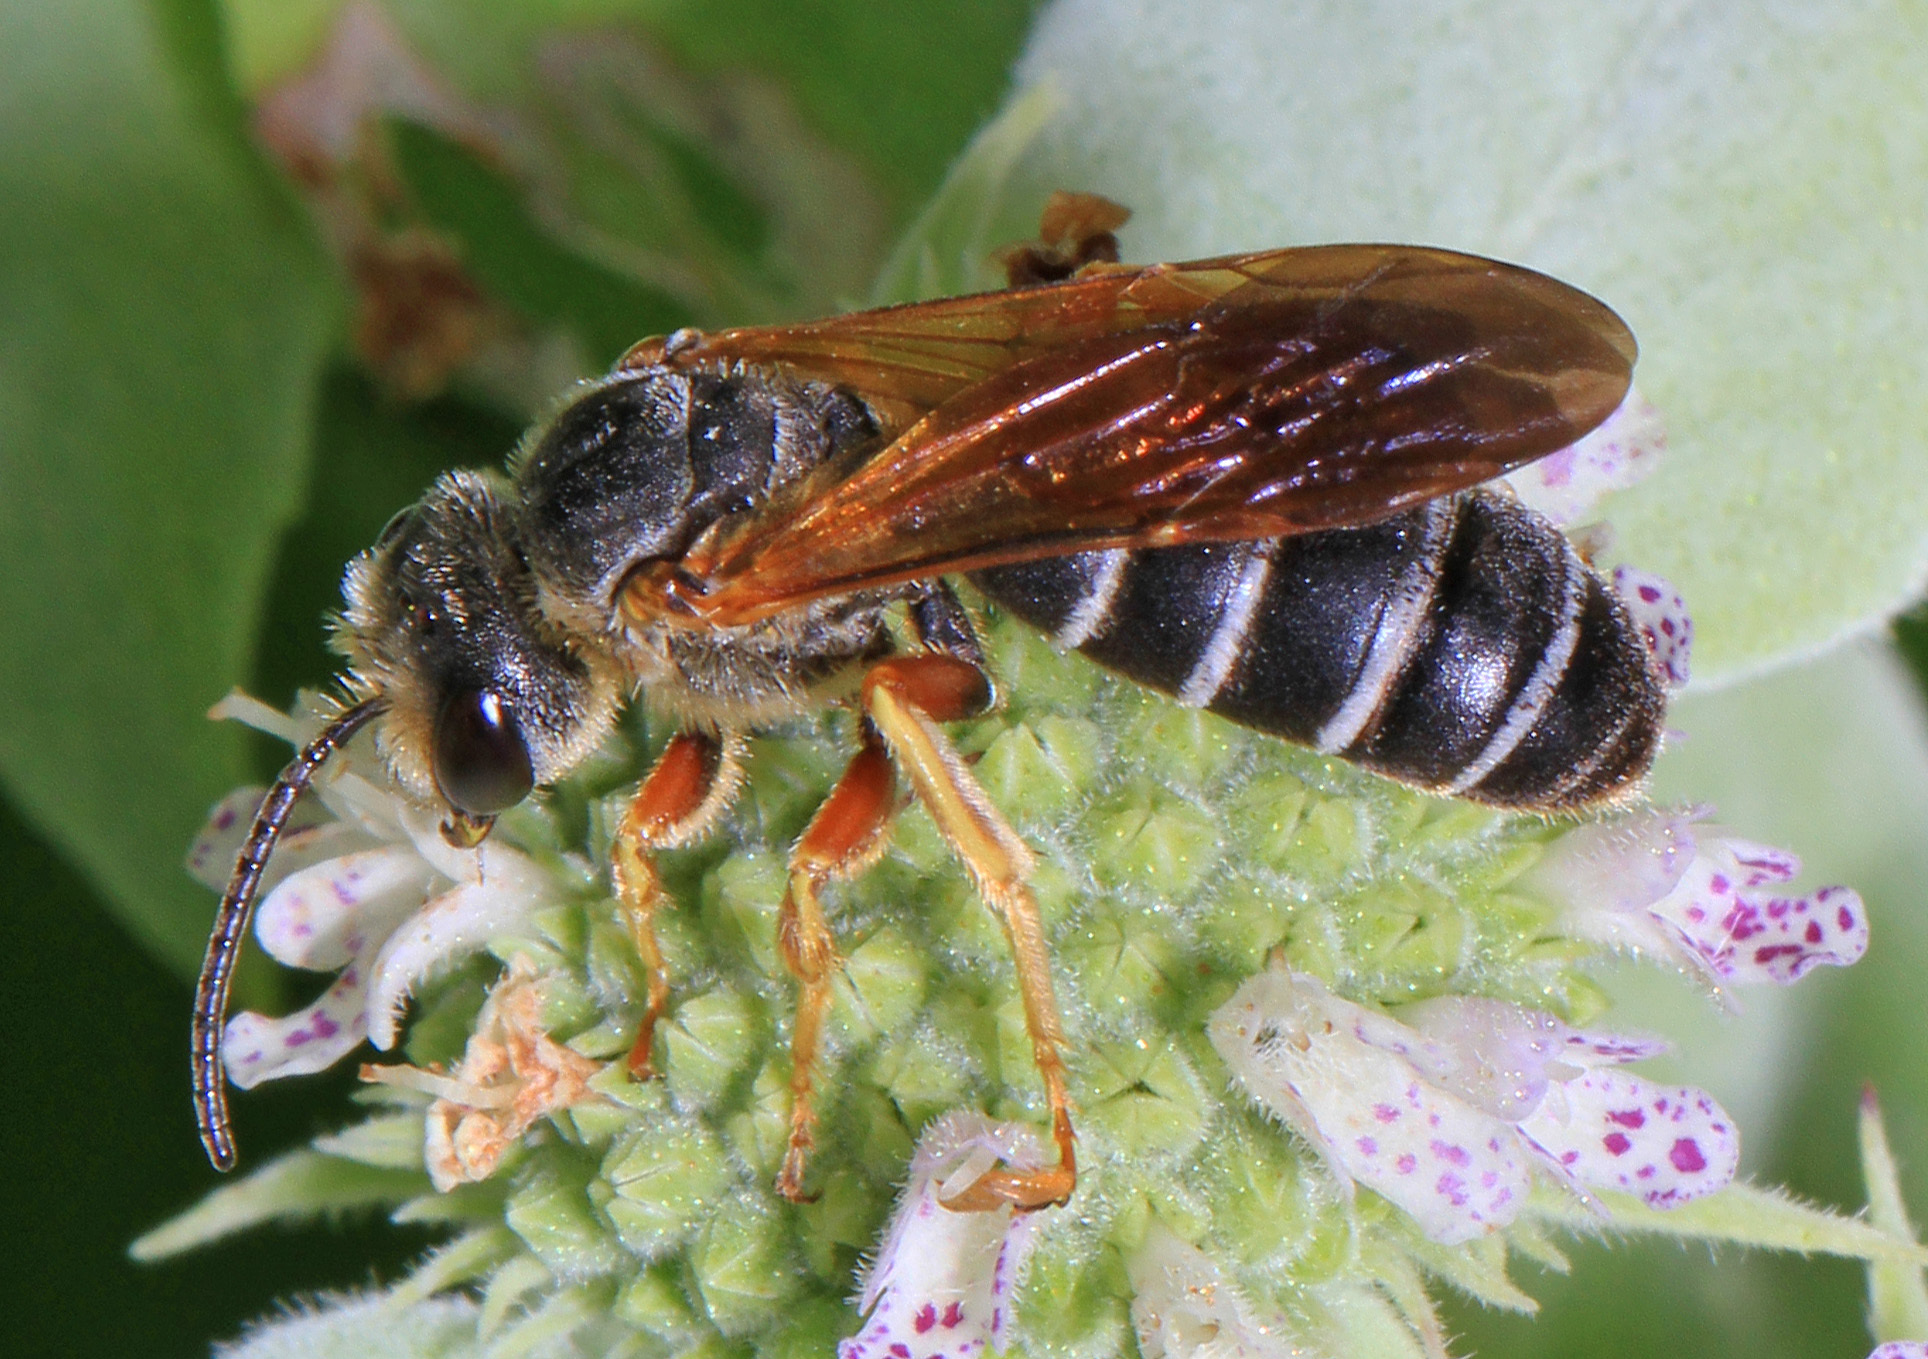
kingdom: Animalia
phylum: Arthropoda
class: Insecta
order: Hymenoptera
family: Halictidae
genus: Halictus
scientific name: Halictus parallelus
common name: Parallel-striped sweat bee
